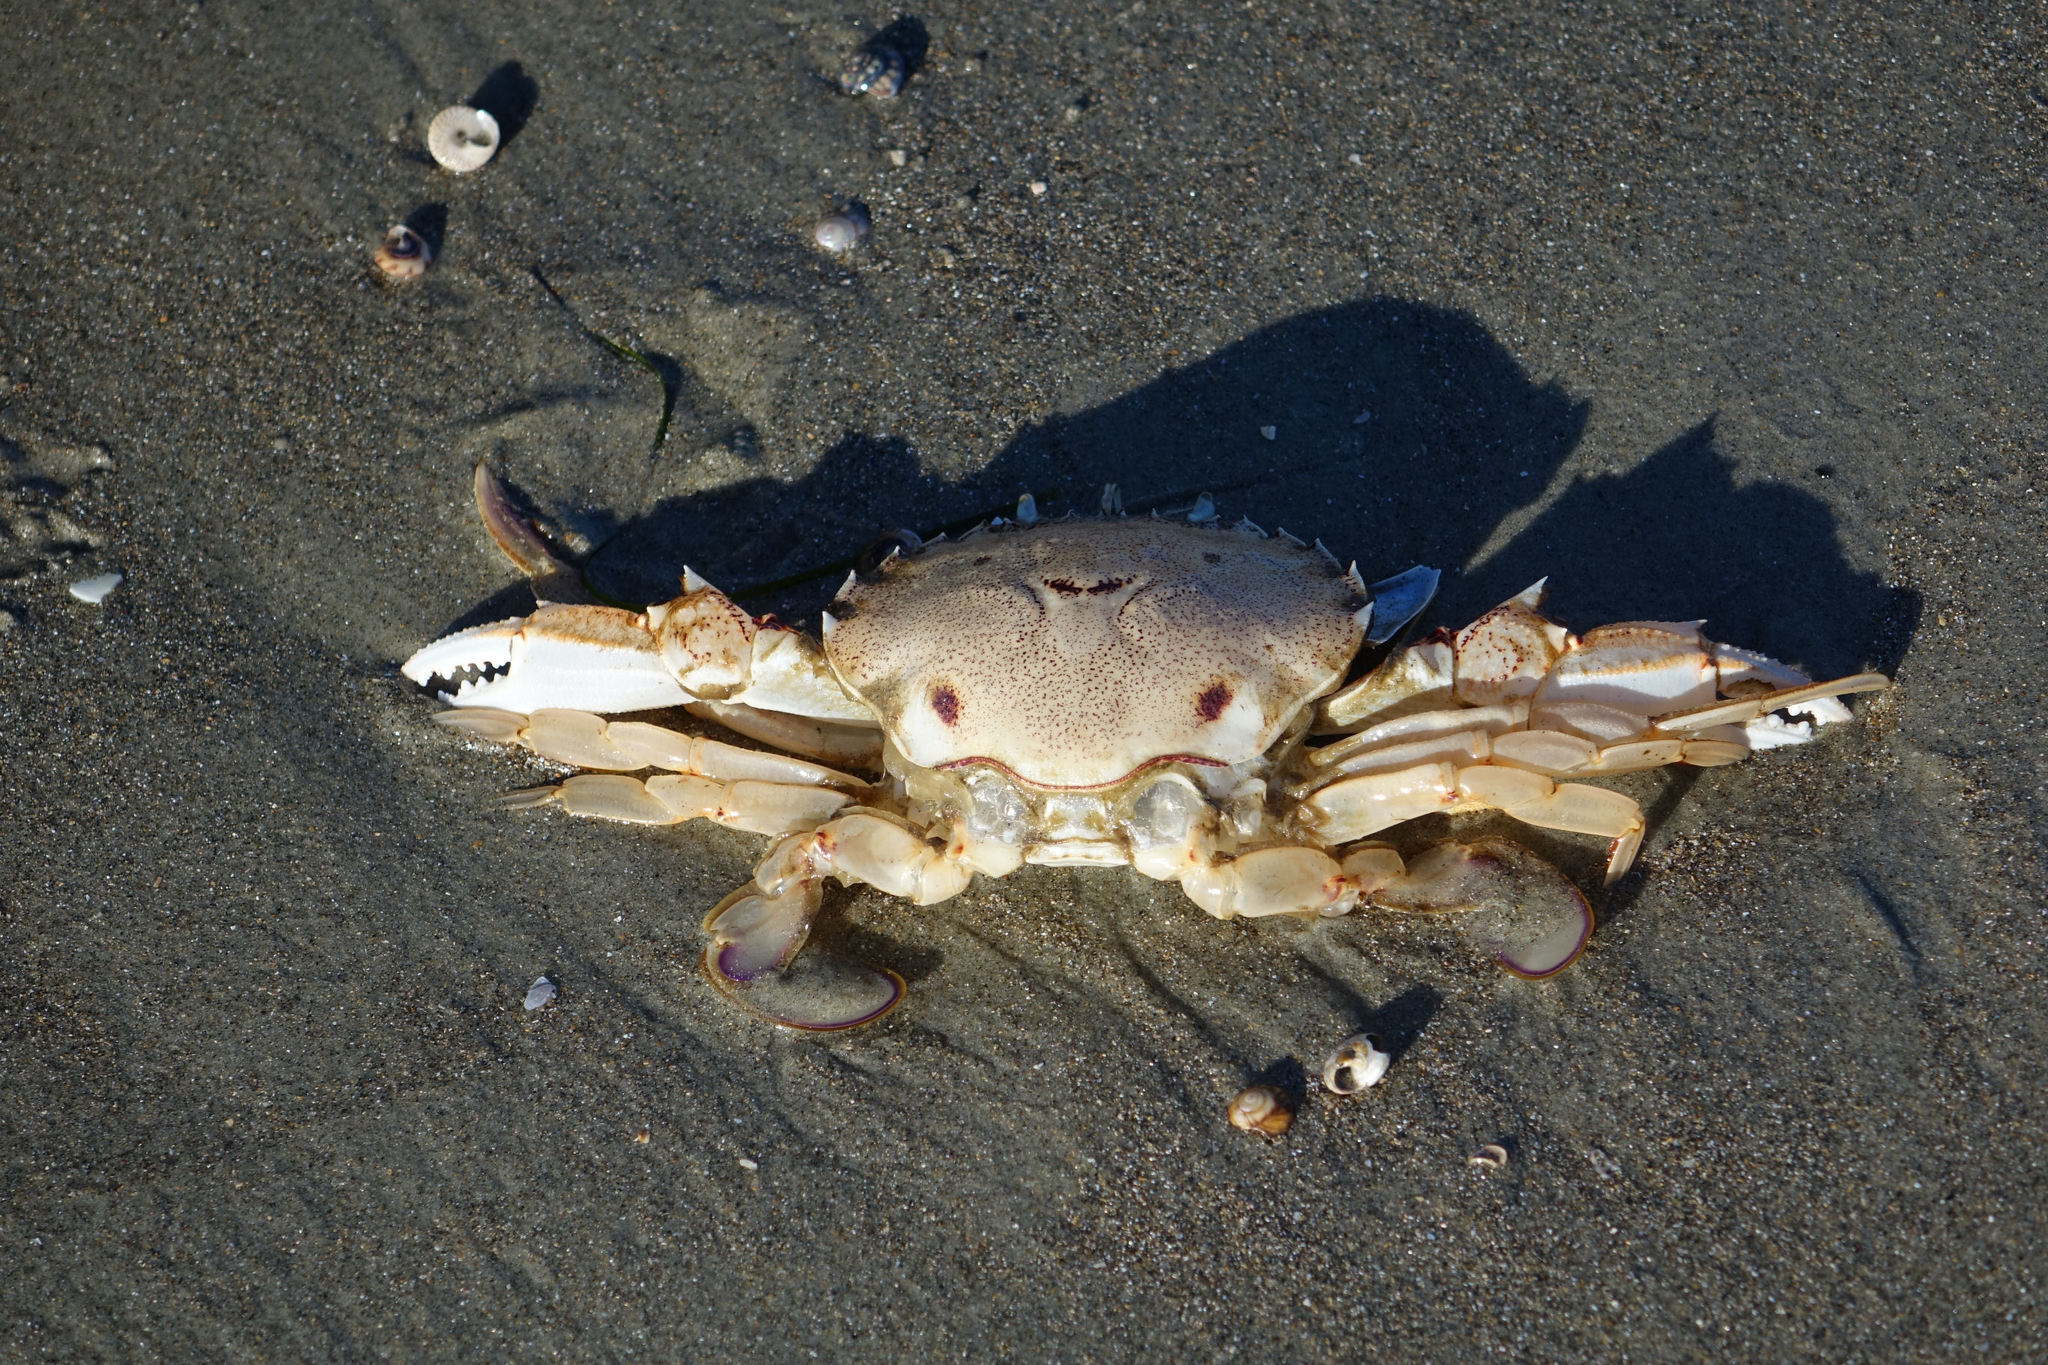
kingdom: Animalia
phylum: Arthropoda
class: Malacostraca
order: Decapoda
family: Ovalipidae
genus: Ovalipes
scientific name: Ovalipes catharus
